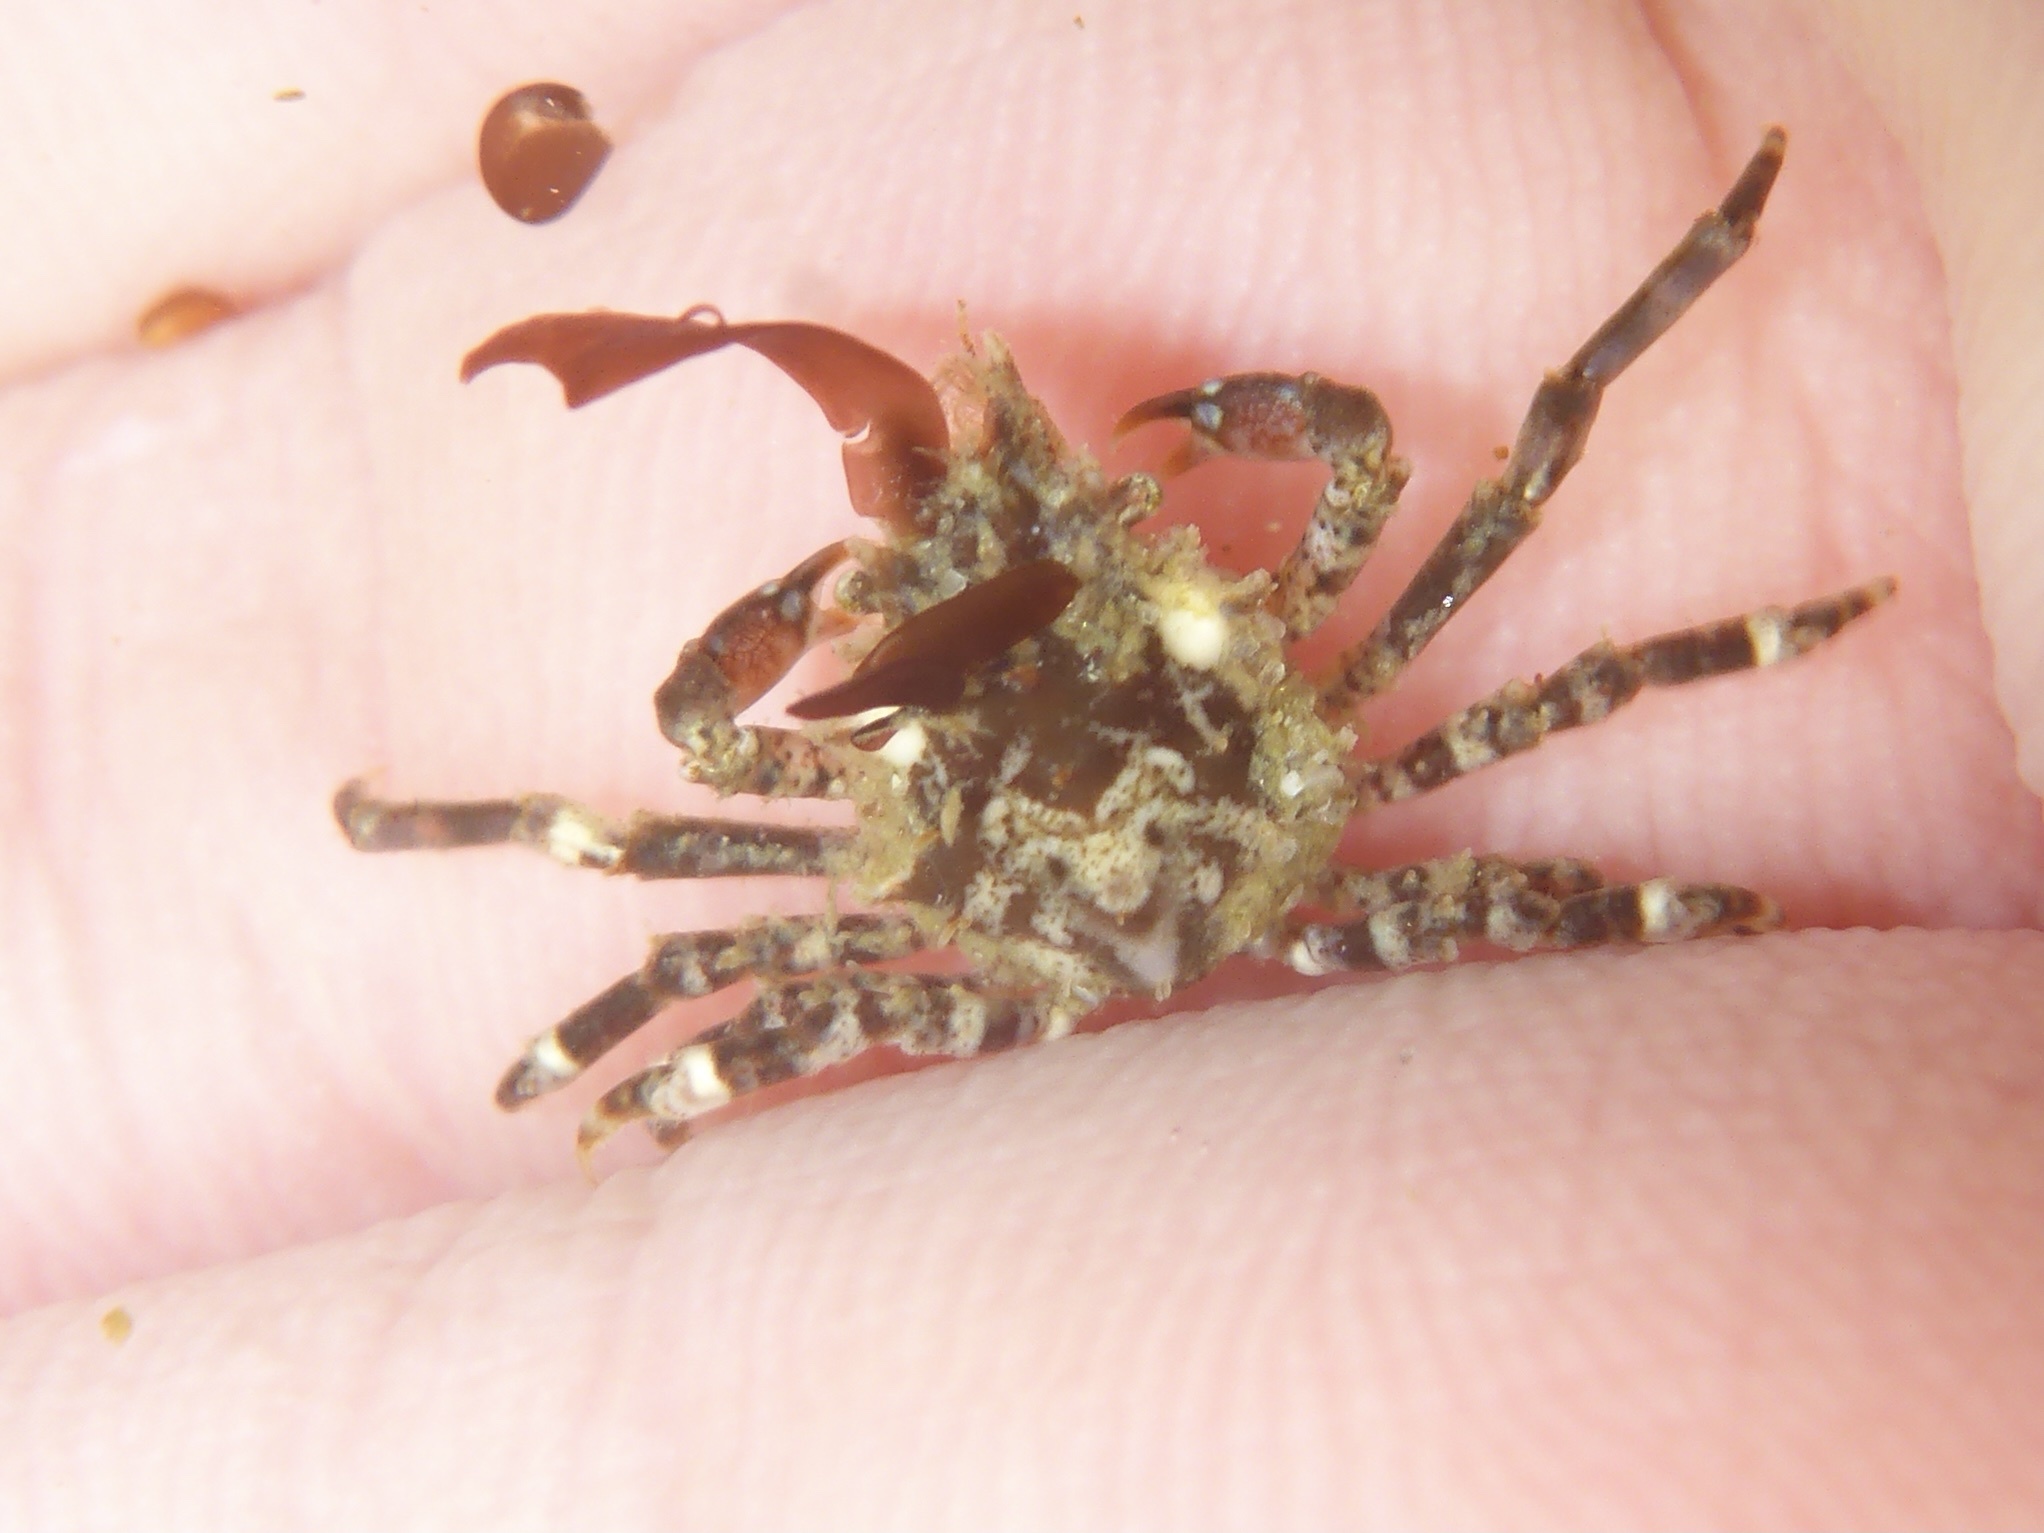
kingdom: Animalia
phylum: Arthropoda
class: Malacostraca
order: Decapoda
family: Epialtidae
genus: Pugettia
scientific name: Pugettia richii
